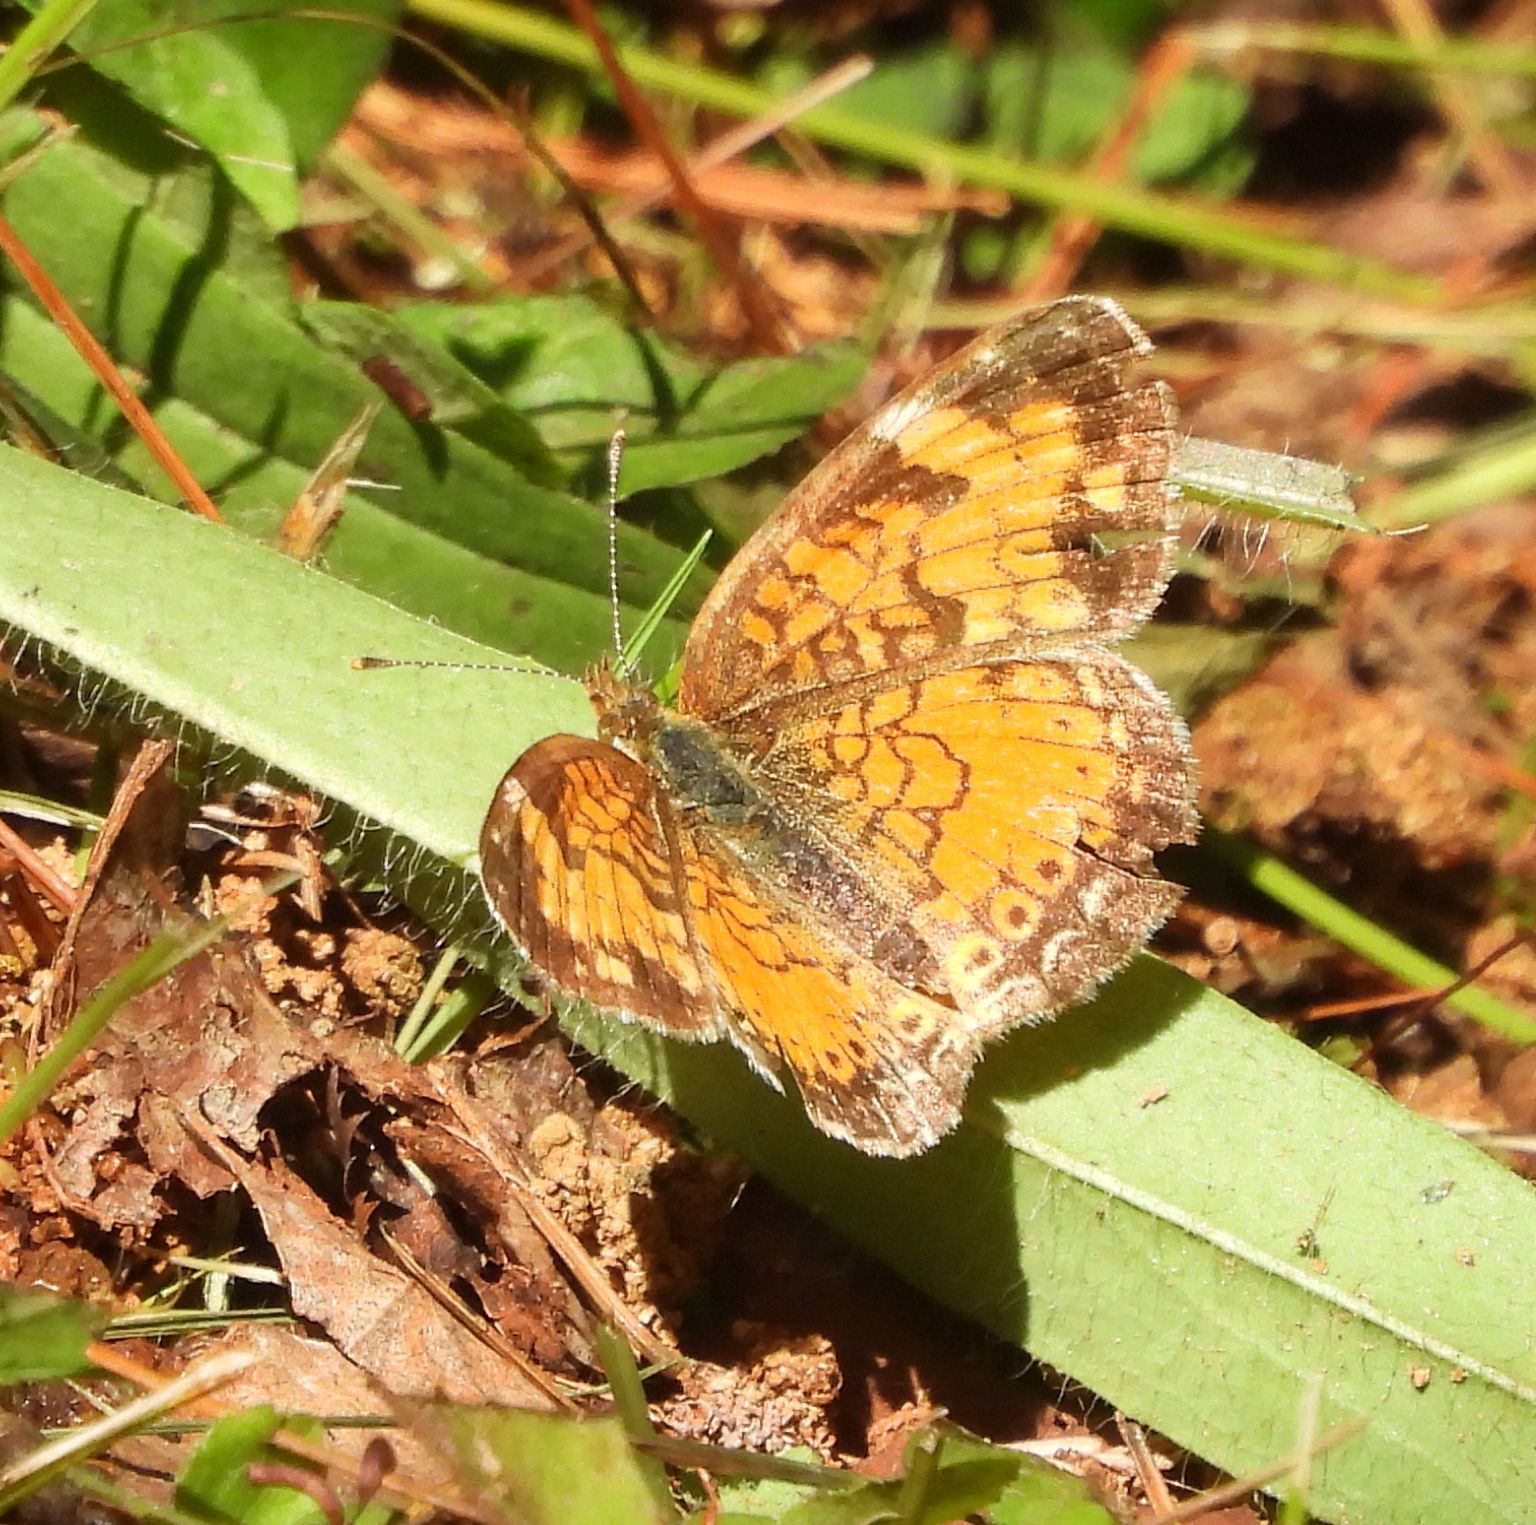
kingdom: Animalia
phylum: Arthropoda
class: Insecta
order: Lepidoptera
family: Nymphalidae
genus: Phyciodes
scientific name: Phyciodes tharos
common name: Pearl crescent
